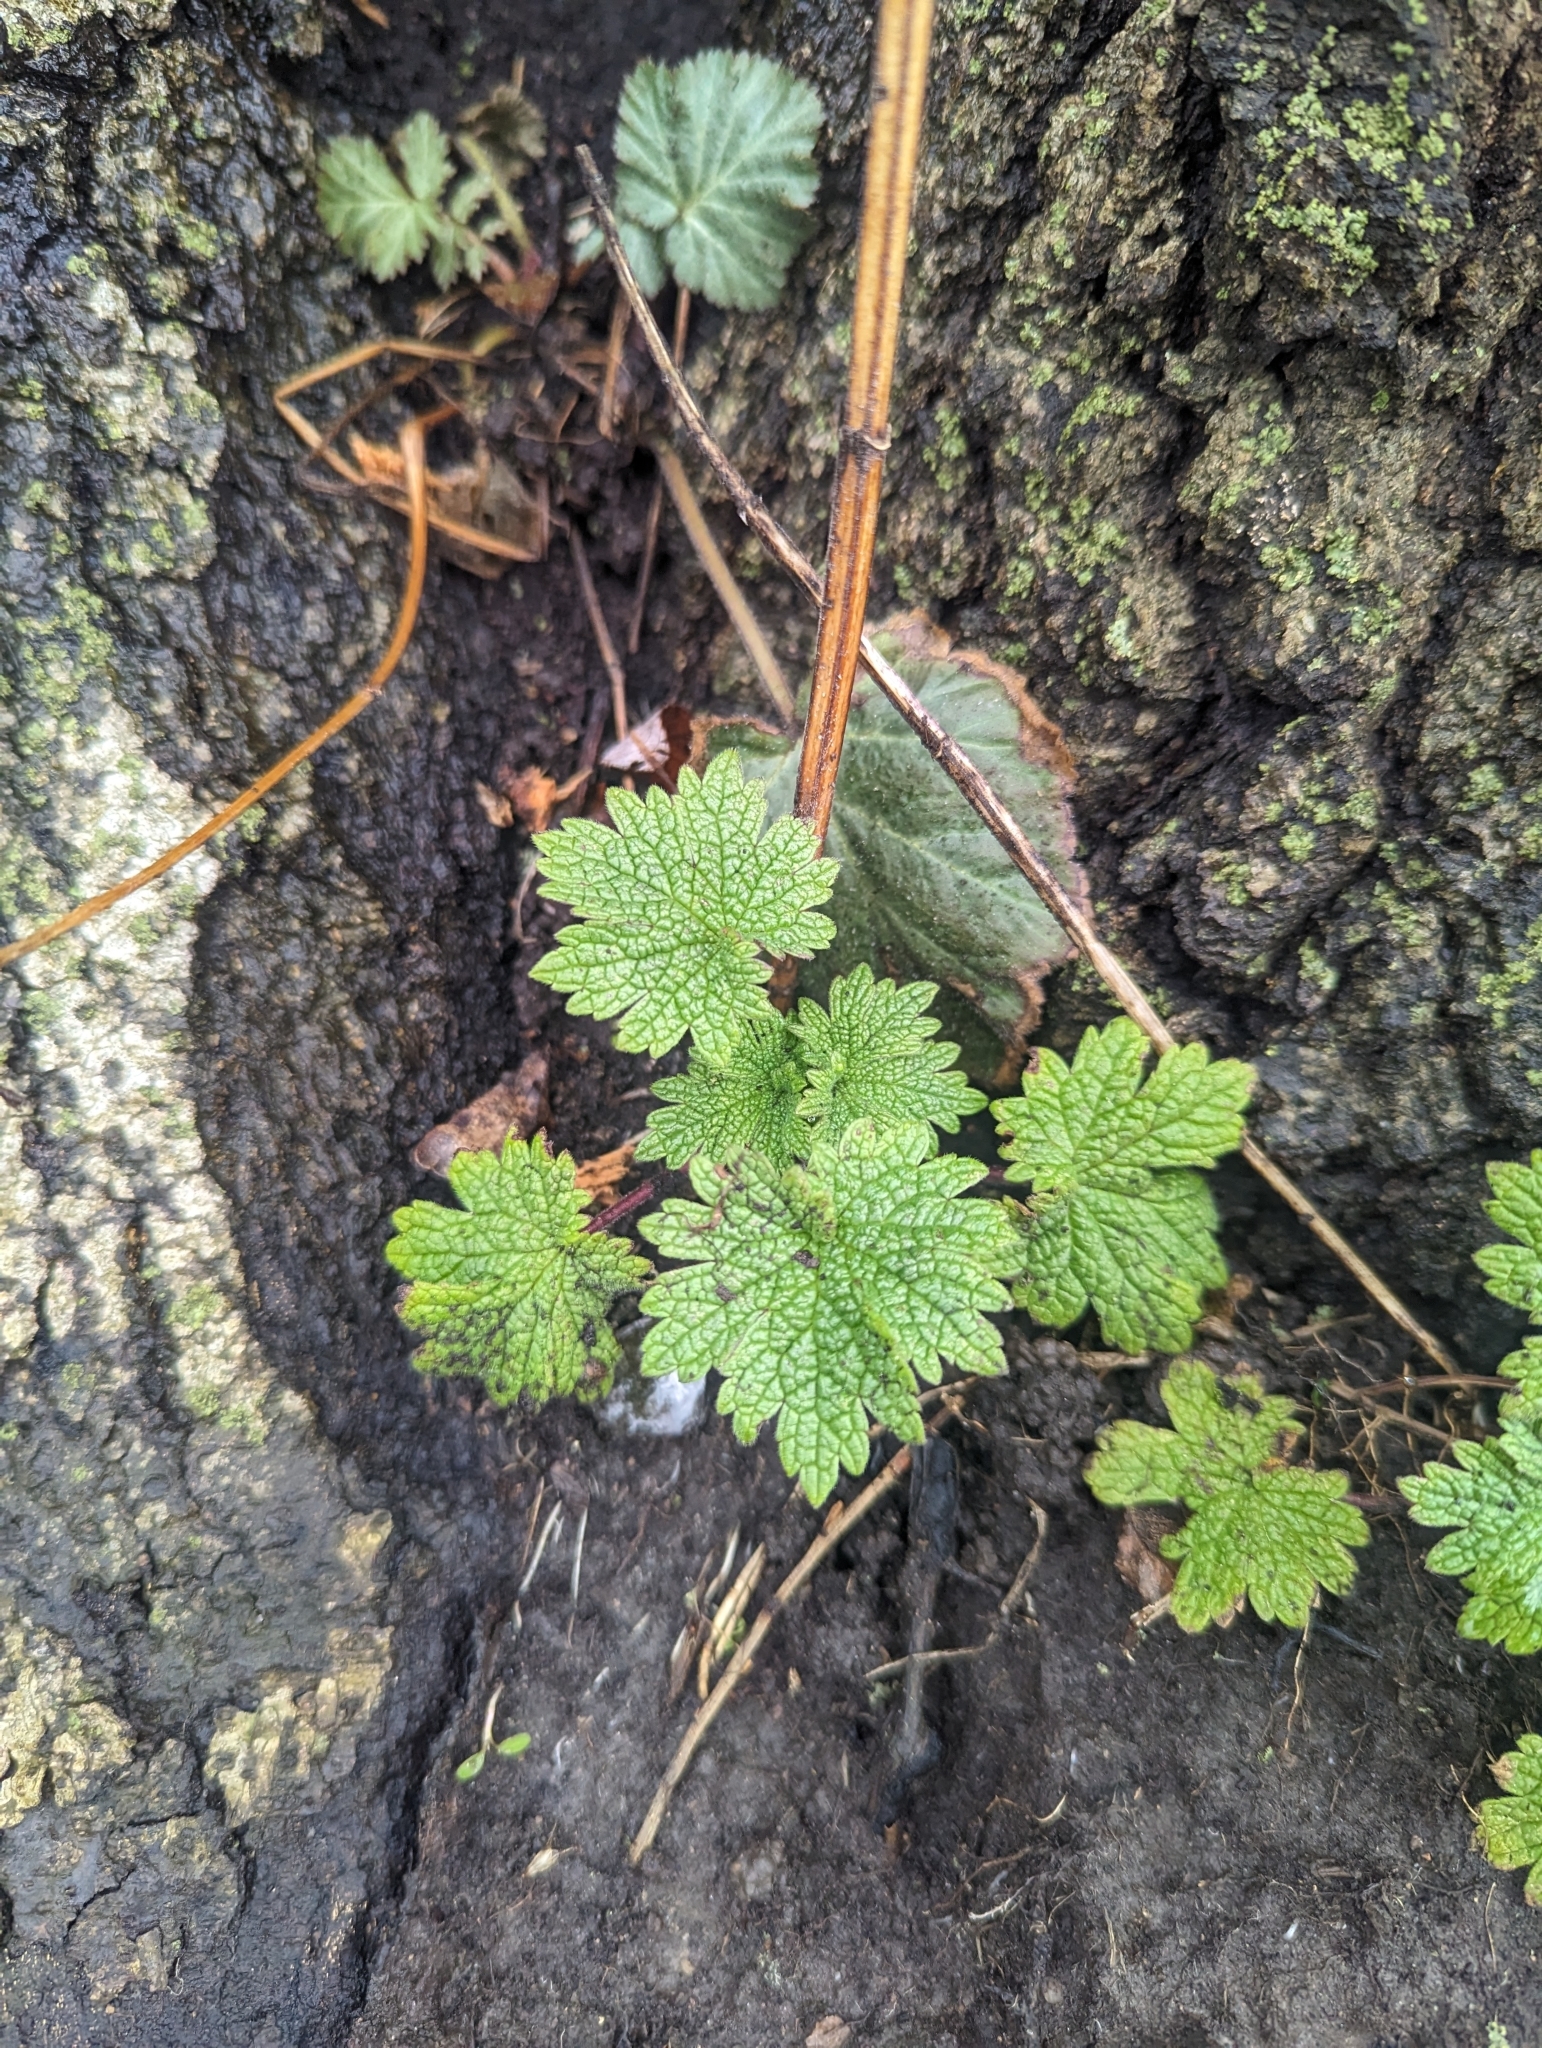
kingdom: Plantae
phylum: Tracheophyta
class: Magnoliopsida
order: Lamiales
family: Lamiaceae
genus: Leonurus
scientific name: Leonurus cardiaca
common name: Motherwort
